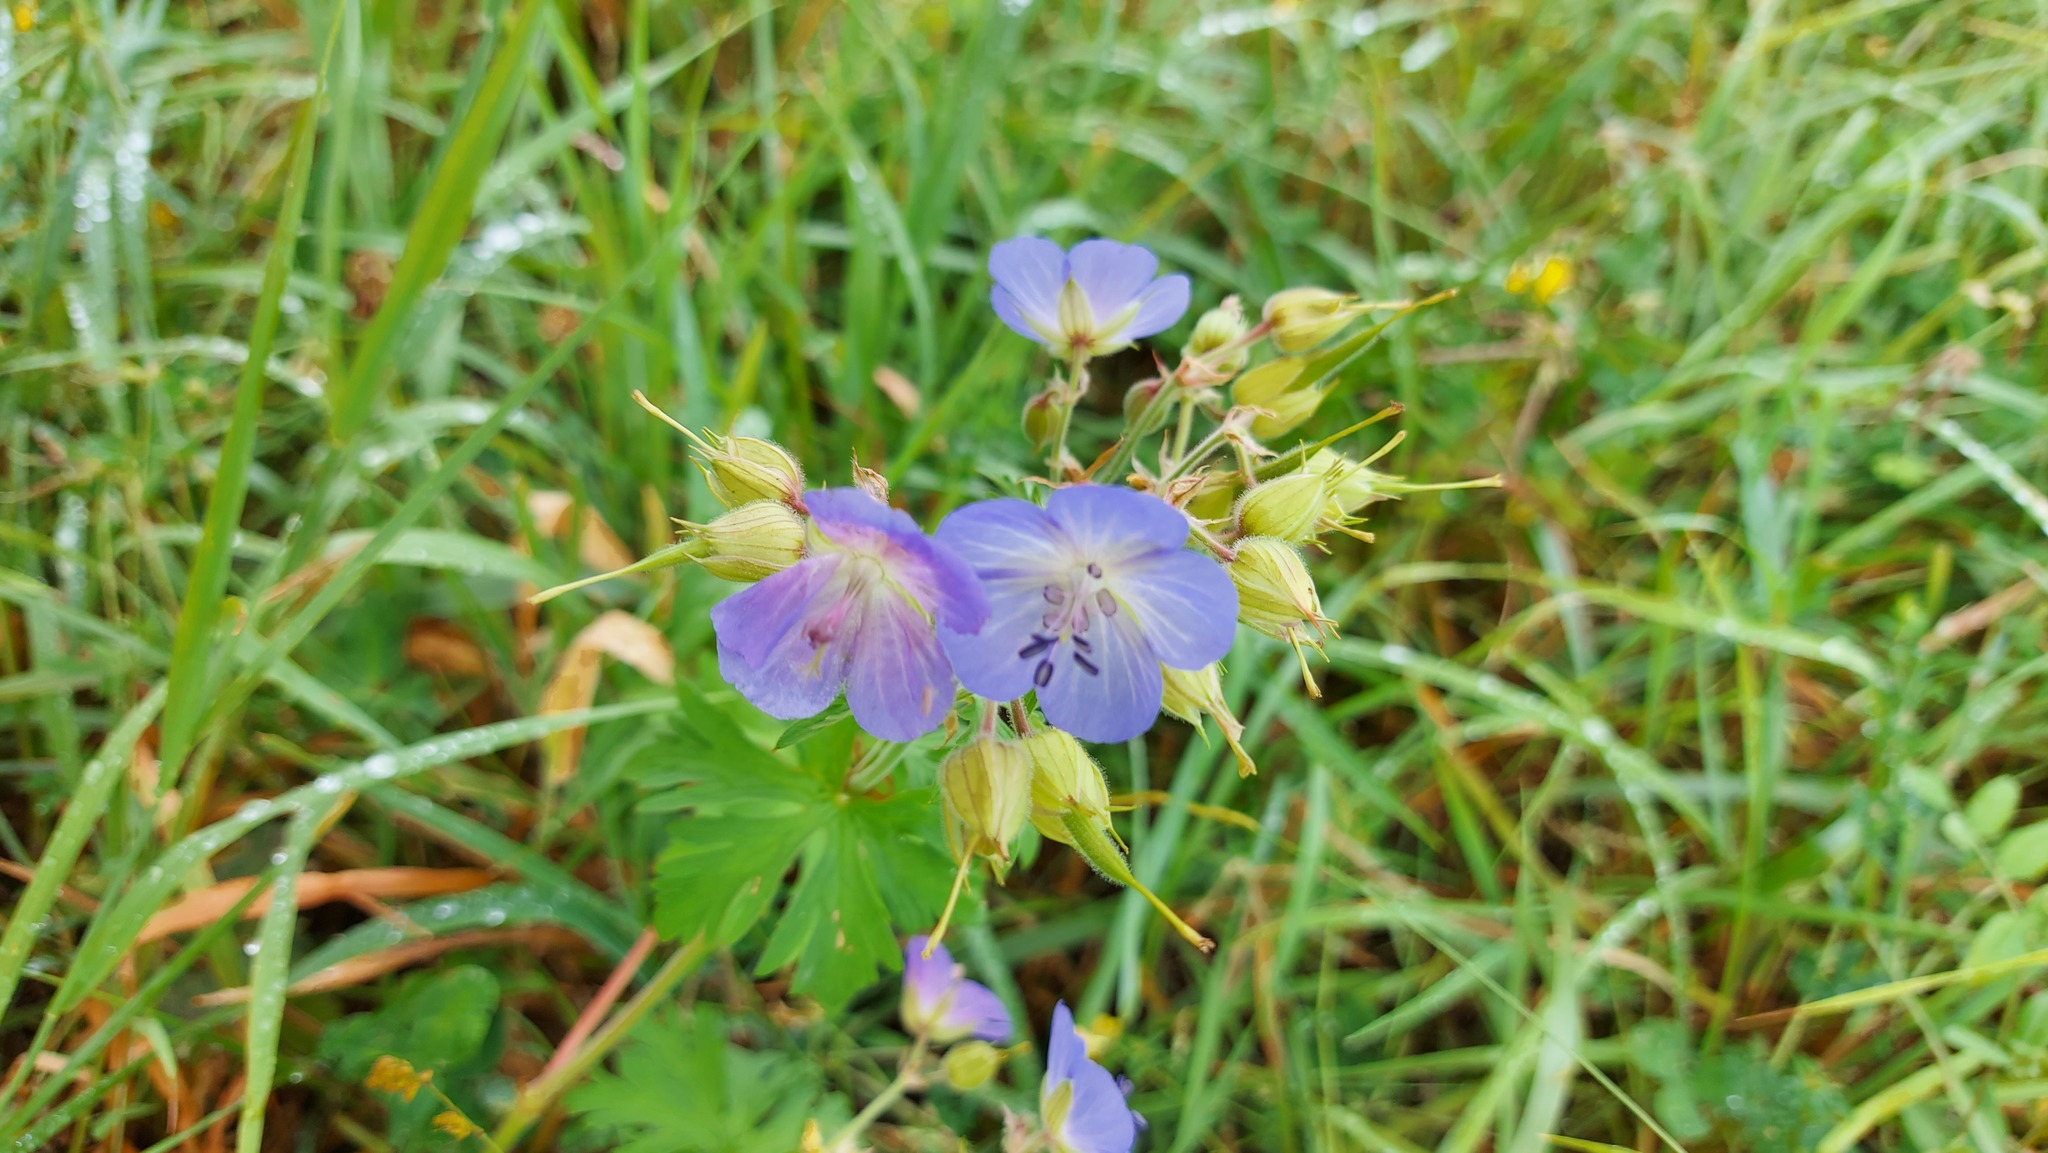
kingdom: Plantae
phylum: Tracheophyta
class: Magnoliopsida
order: Geraniales
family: Geraniaceae
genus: Geranium
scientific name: Geranium pratense
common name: Meadow crane's-bill
